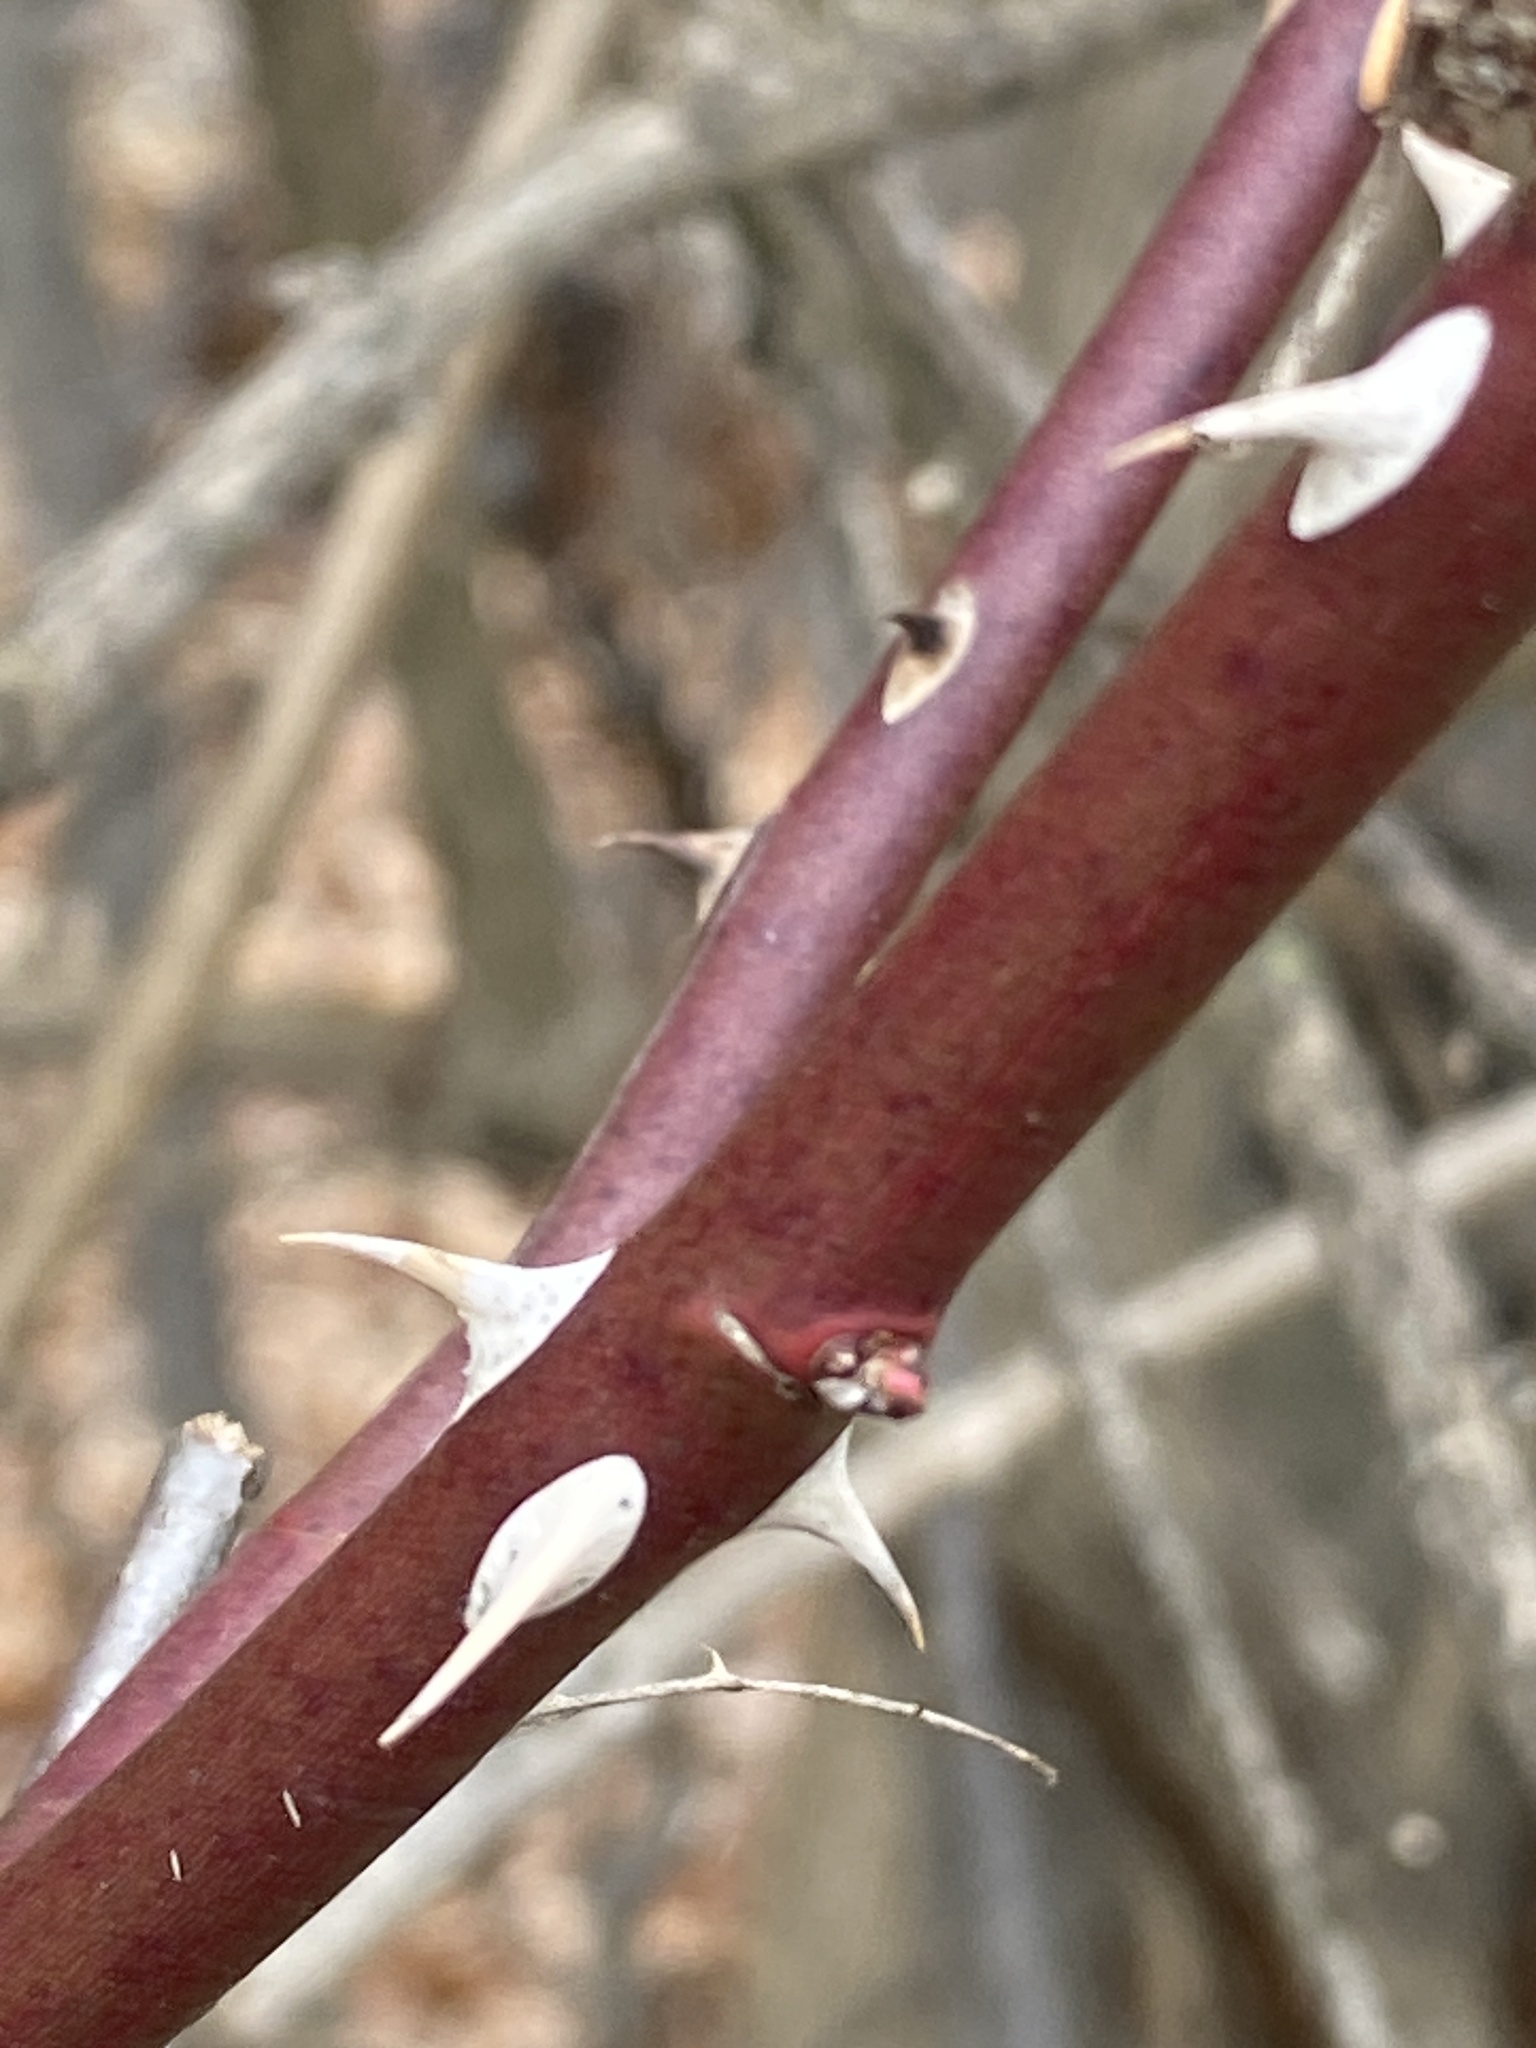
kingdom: Plantae
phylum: Tracheophyta
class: Magnoliopsida
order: Rosales
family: Rosaceae
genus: Rosa
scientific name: Rosa multiflora
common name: Multiflora rose
